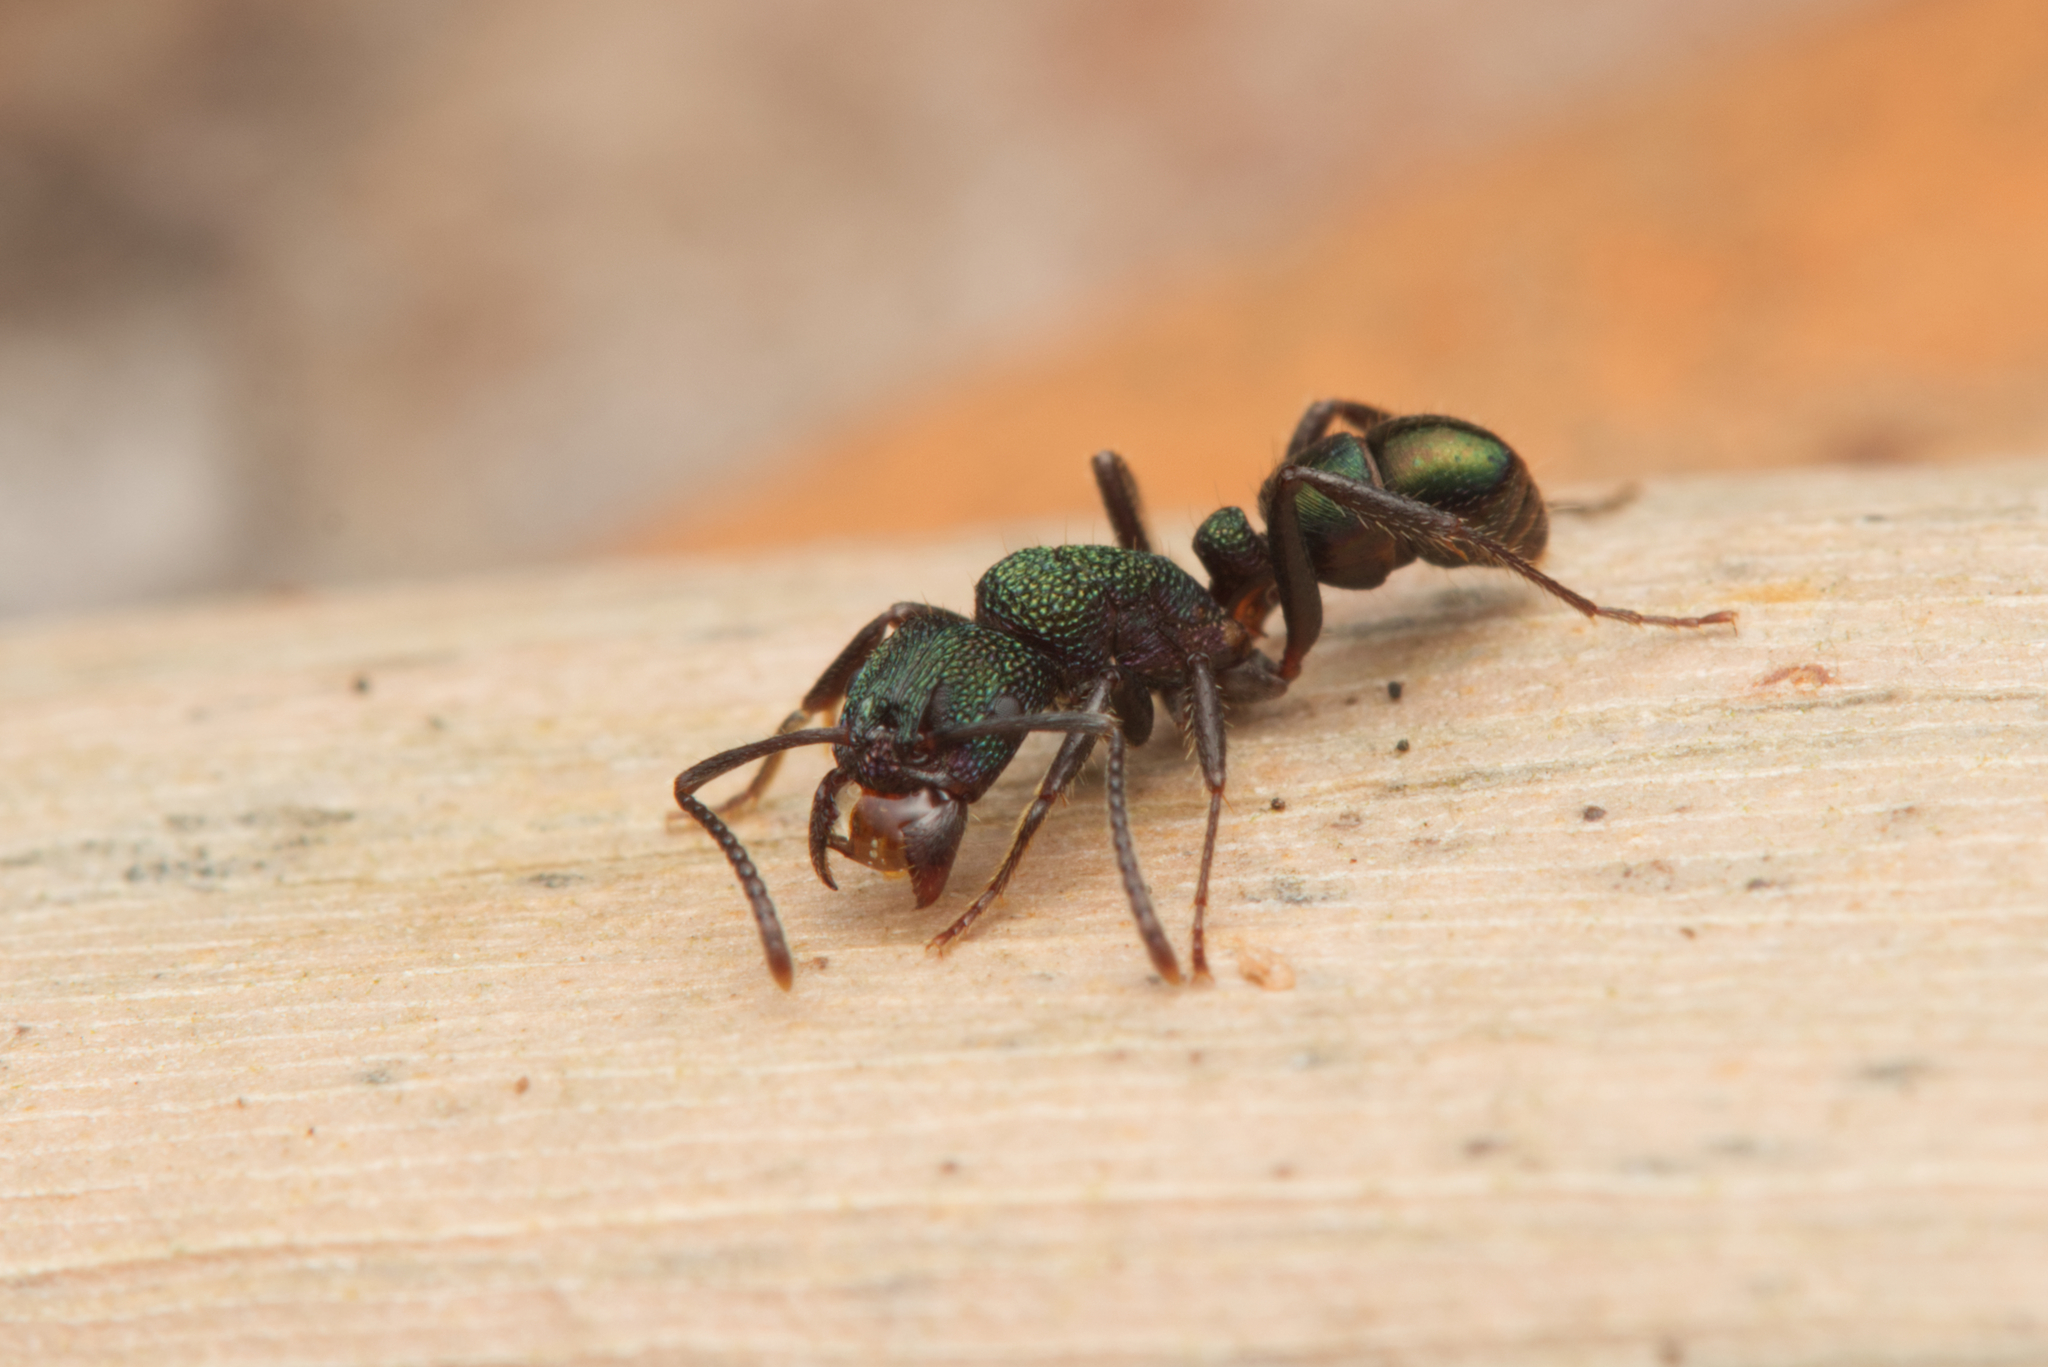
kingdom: Animalia
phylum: Arthropoda
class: Insecta
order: Hymenoptera
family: Formicidae
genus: Rhytidoponera
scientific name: Rhytidoponera metallica
